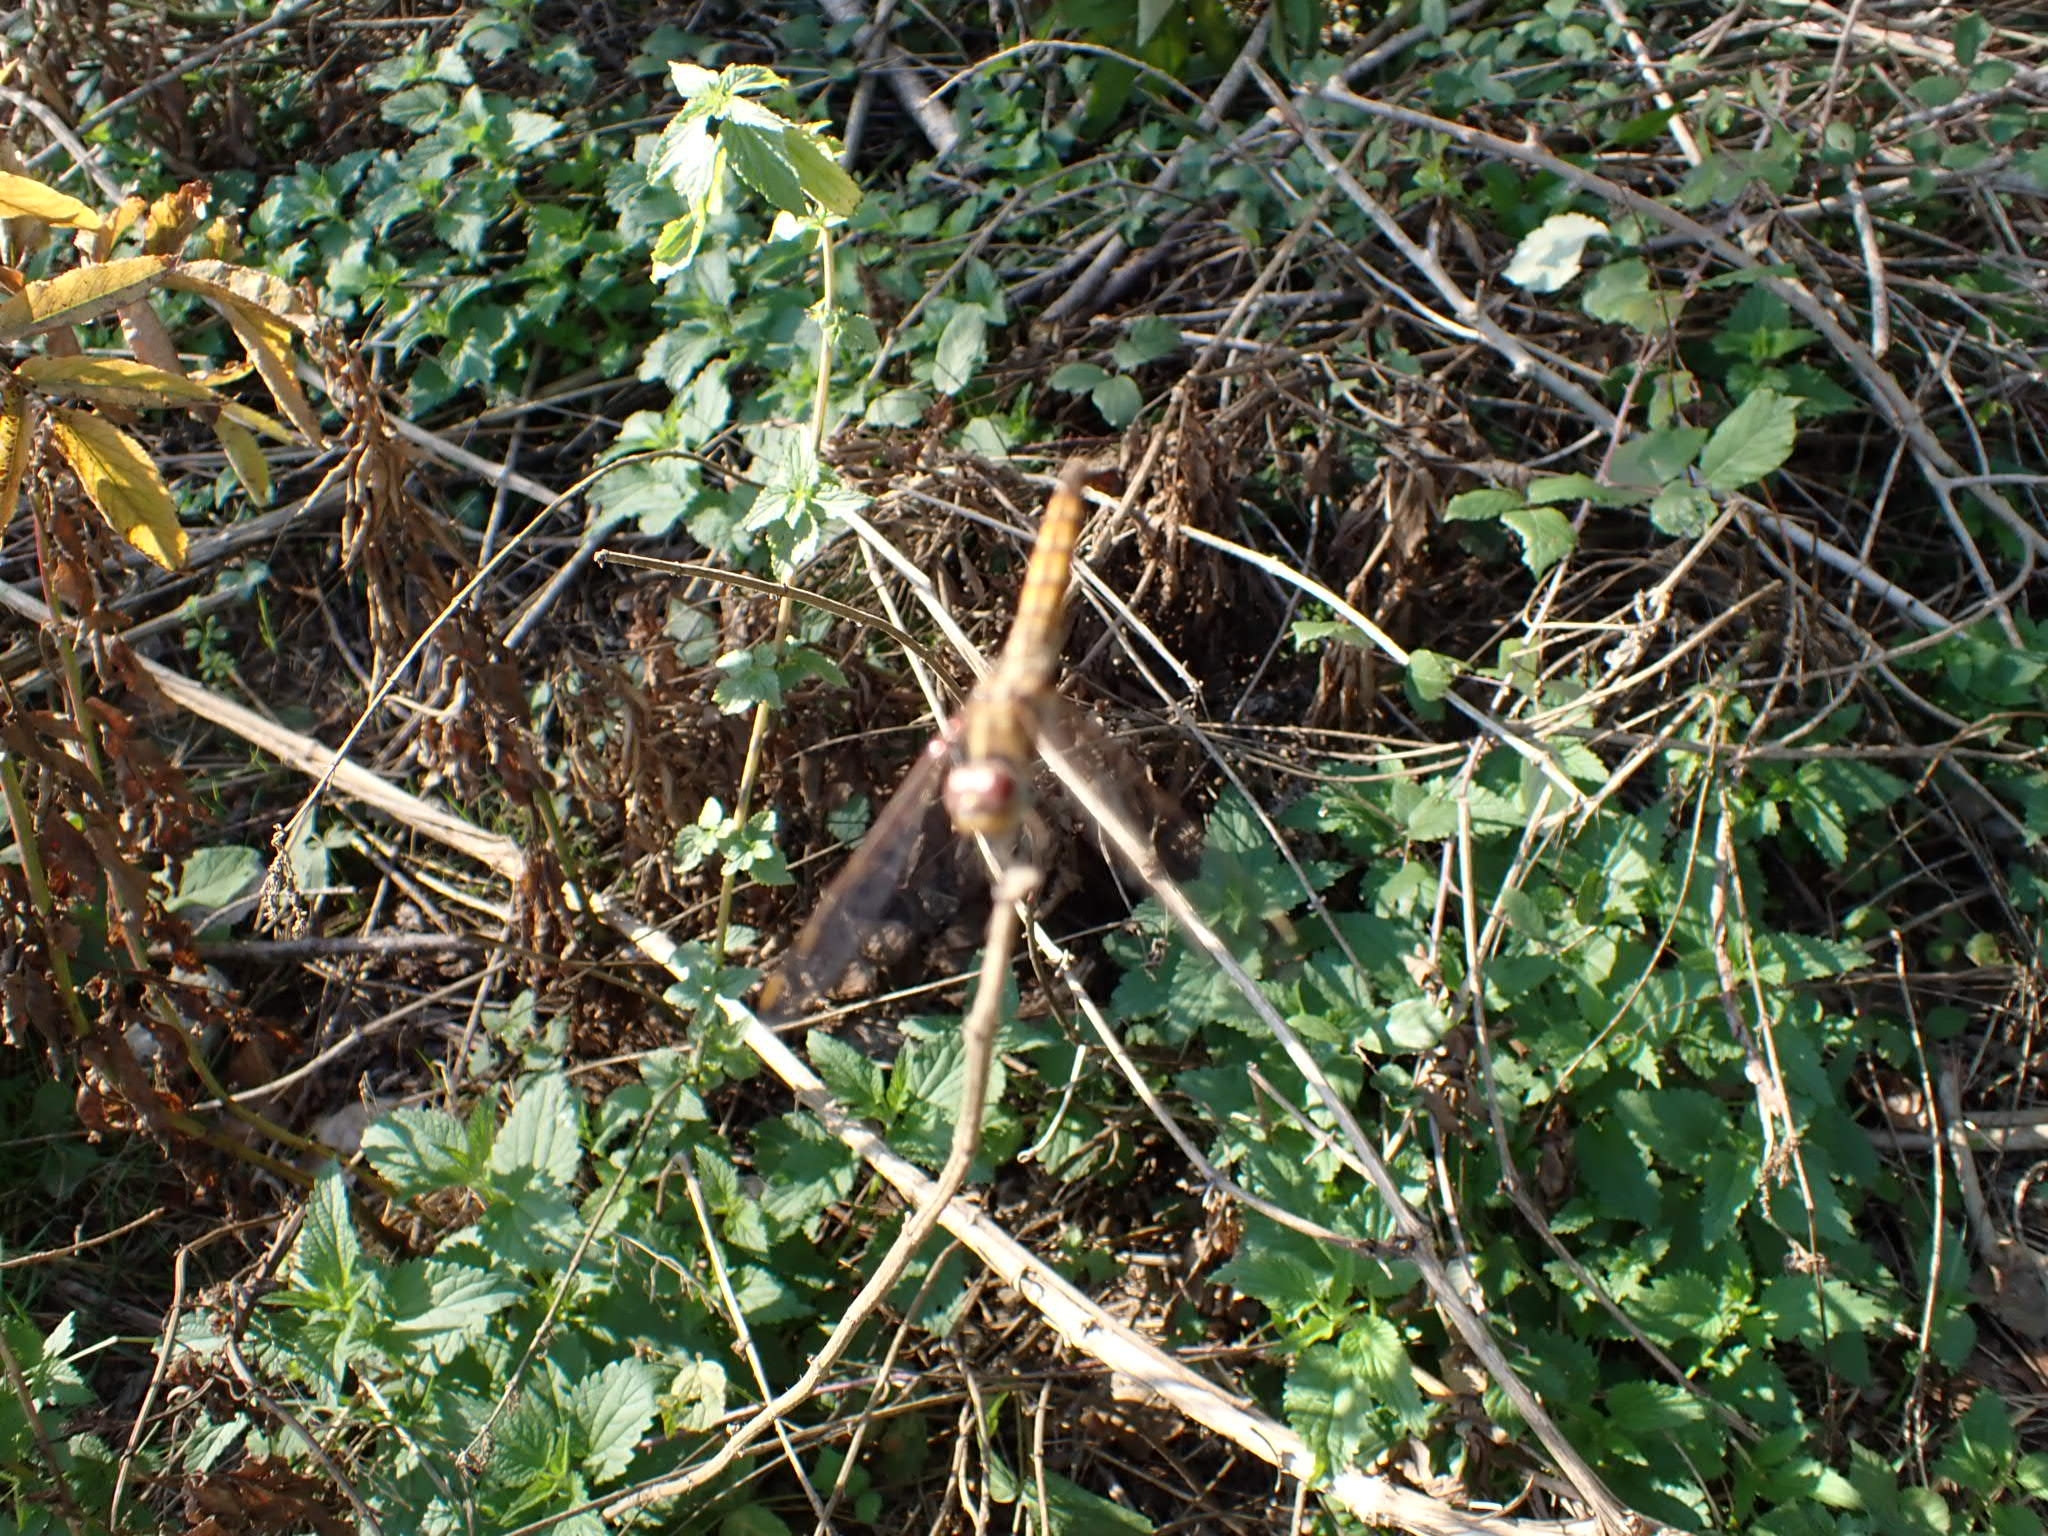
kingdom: Animalia
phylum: Arthropoda
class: Insecta
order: Odonata
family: Libellulidae
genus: Trithemis
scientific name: Trithemis annulata
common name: Violet dropwing
